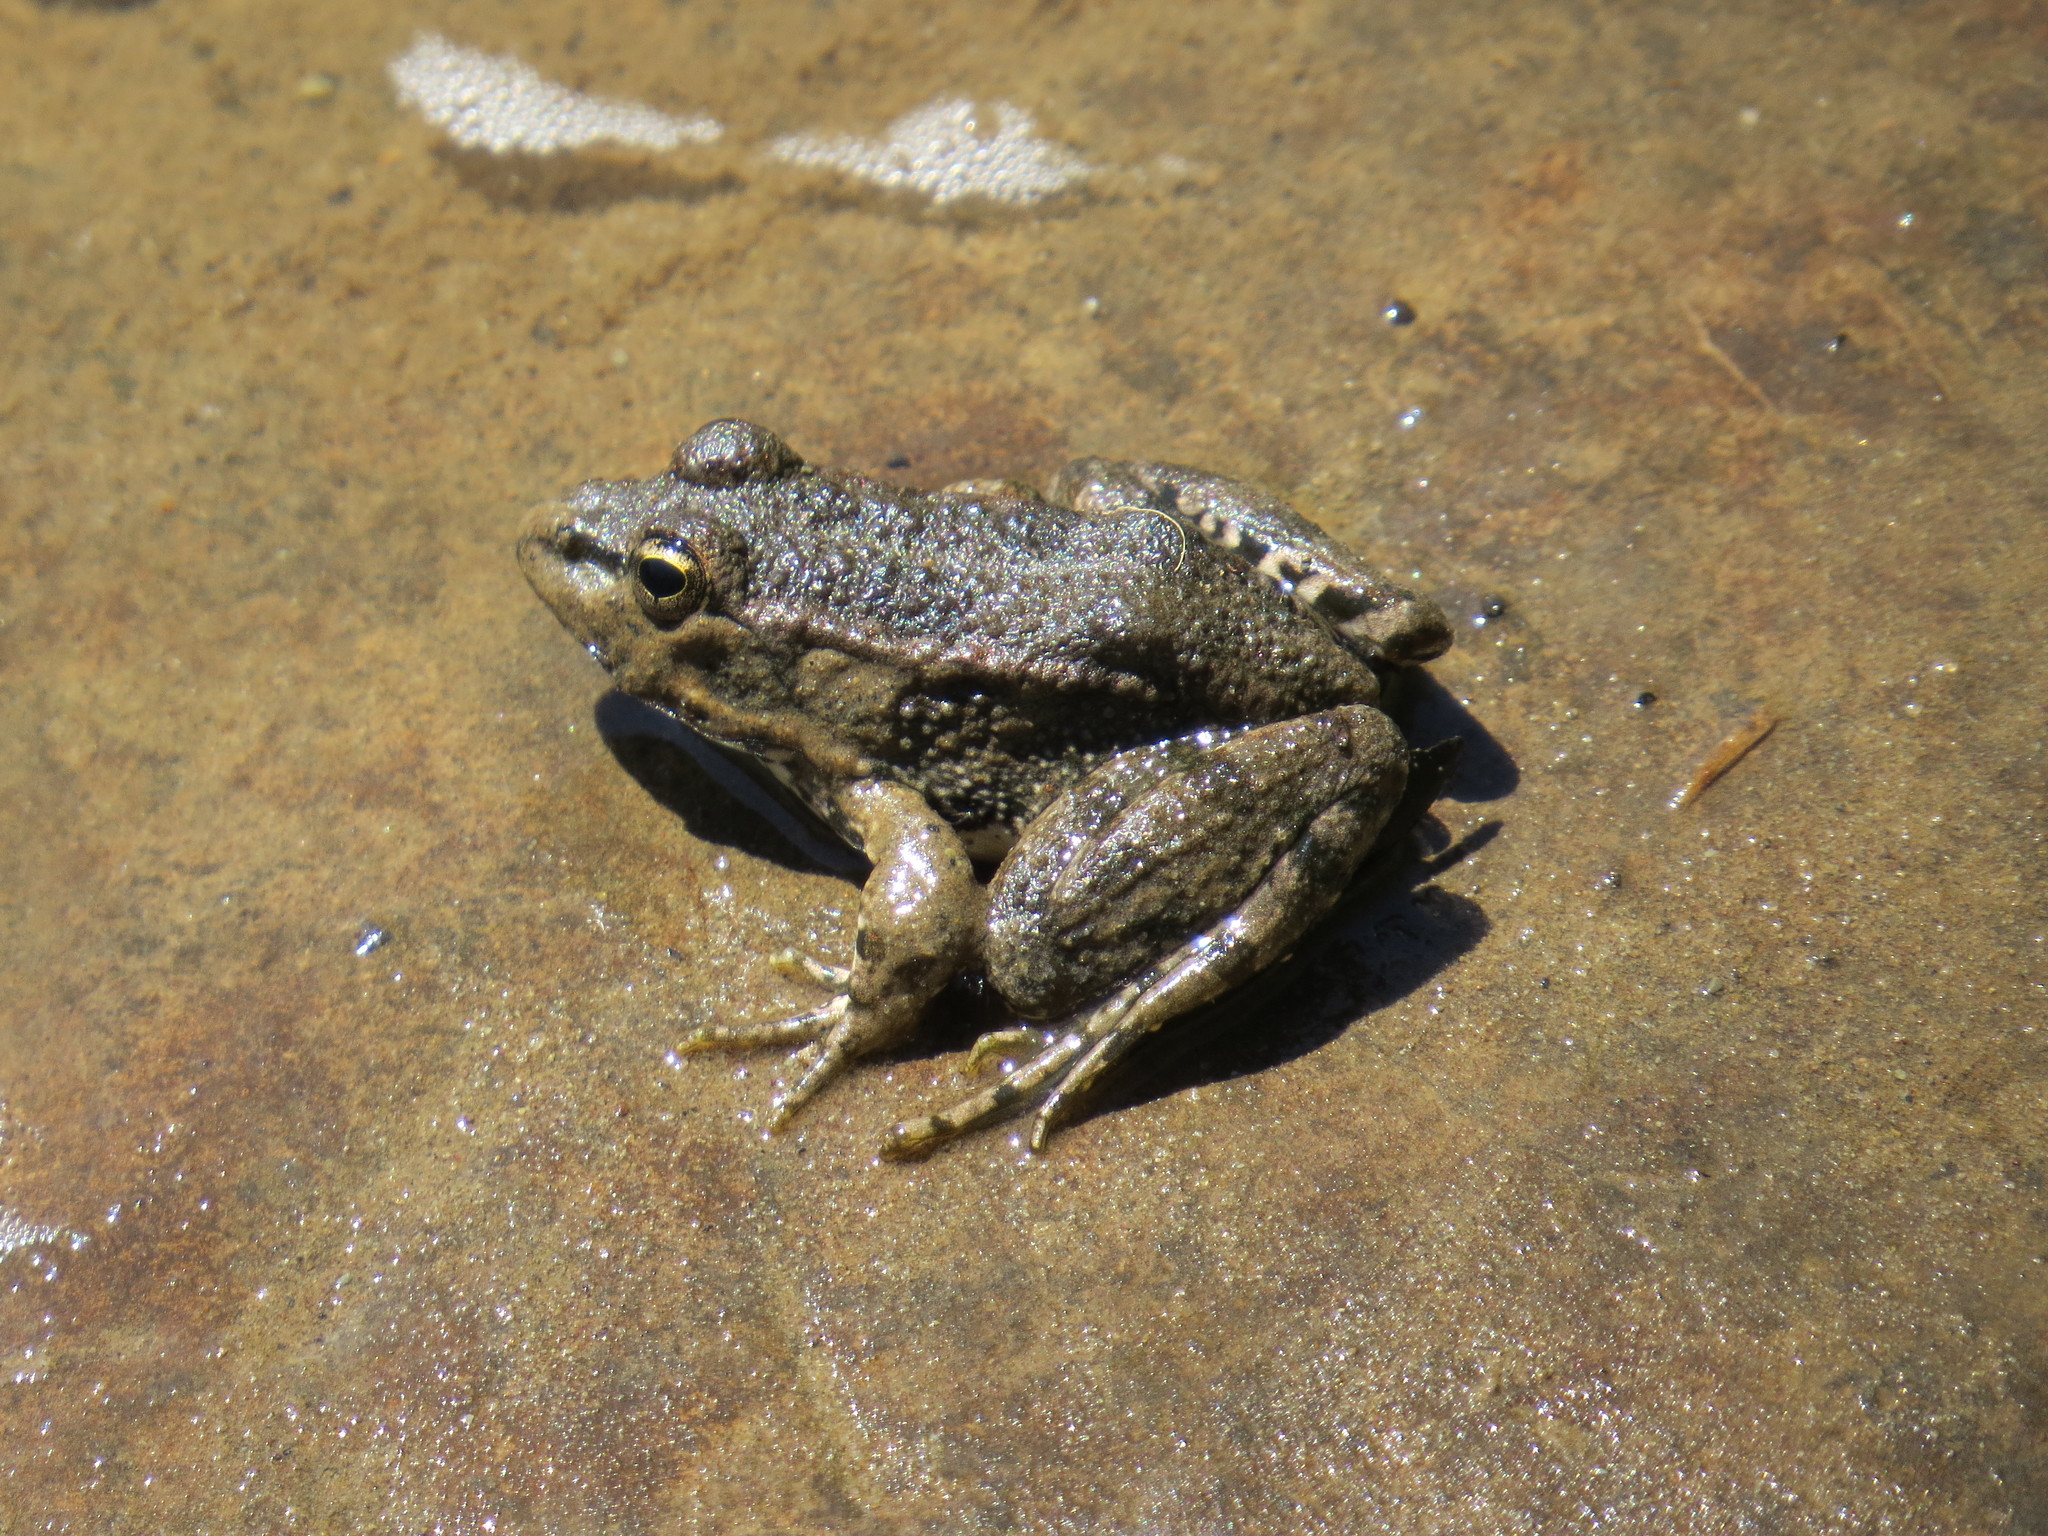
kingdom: Animalia
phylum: Chordata
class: Amphibia
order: Anura
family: Ranidae
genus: Pelophylax
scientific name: Pelophylax perezi
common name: Perez's frog
